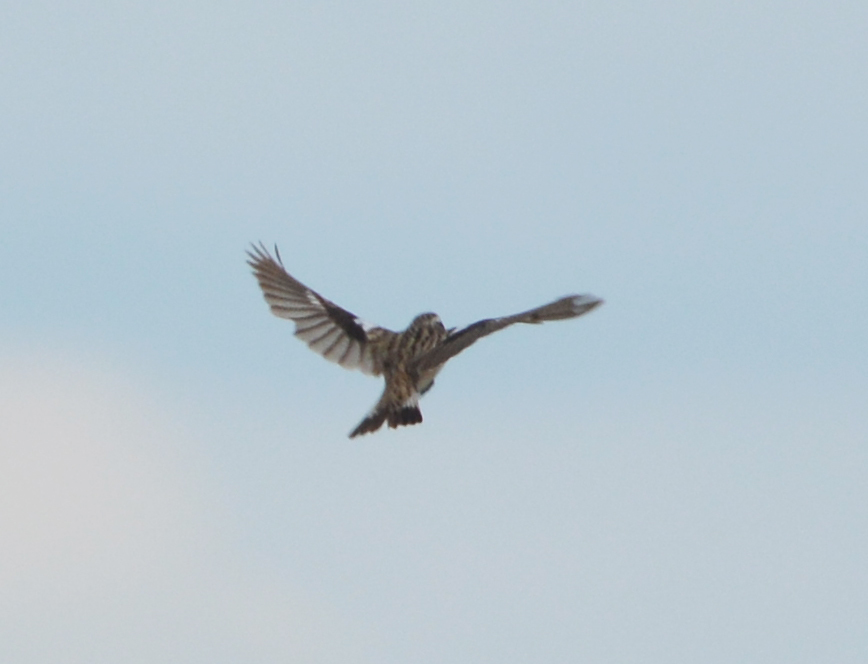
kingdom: Animalia
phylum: Chordata
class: Aves
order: Passeriformes
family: Muscicapidae
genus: Saxicola
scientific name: Saxicola rubetra
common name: Whinchat
